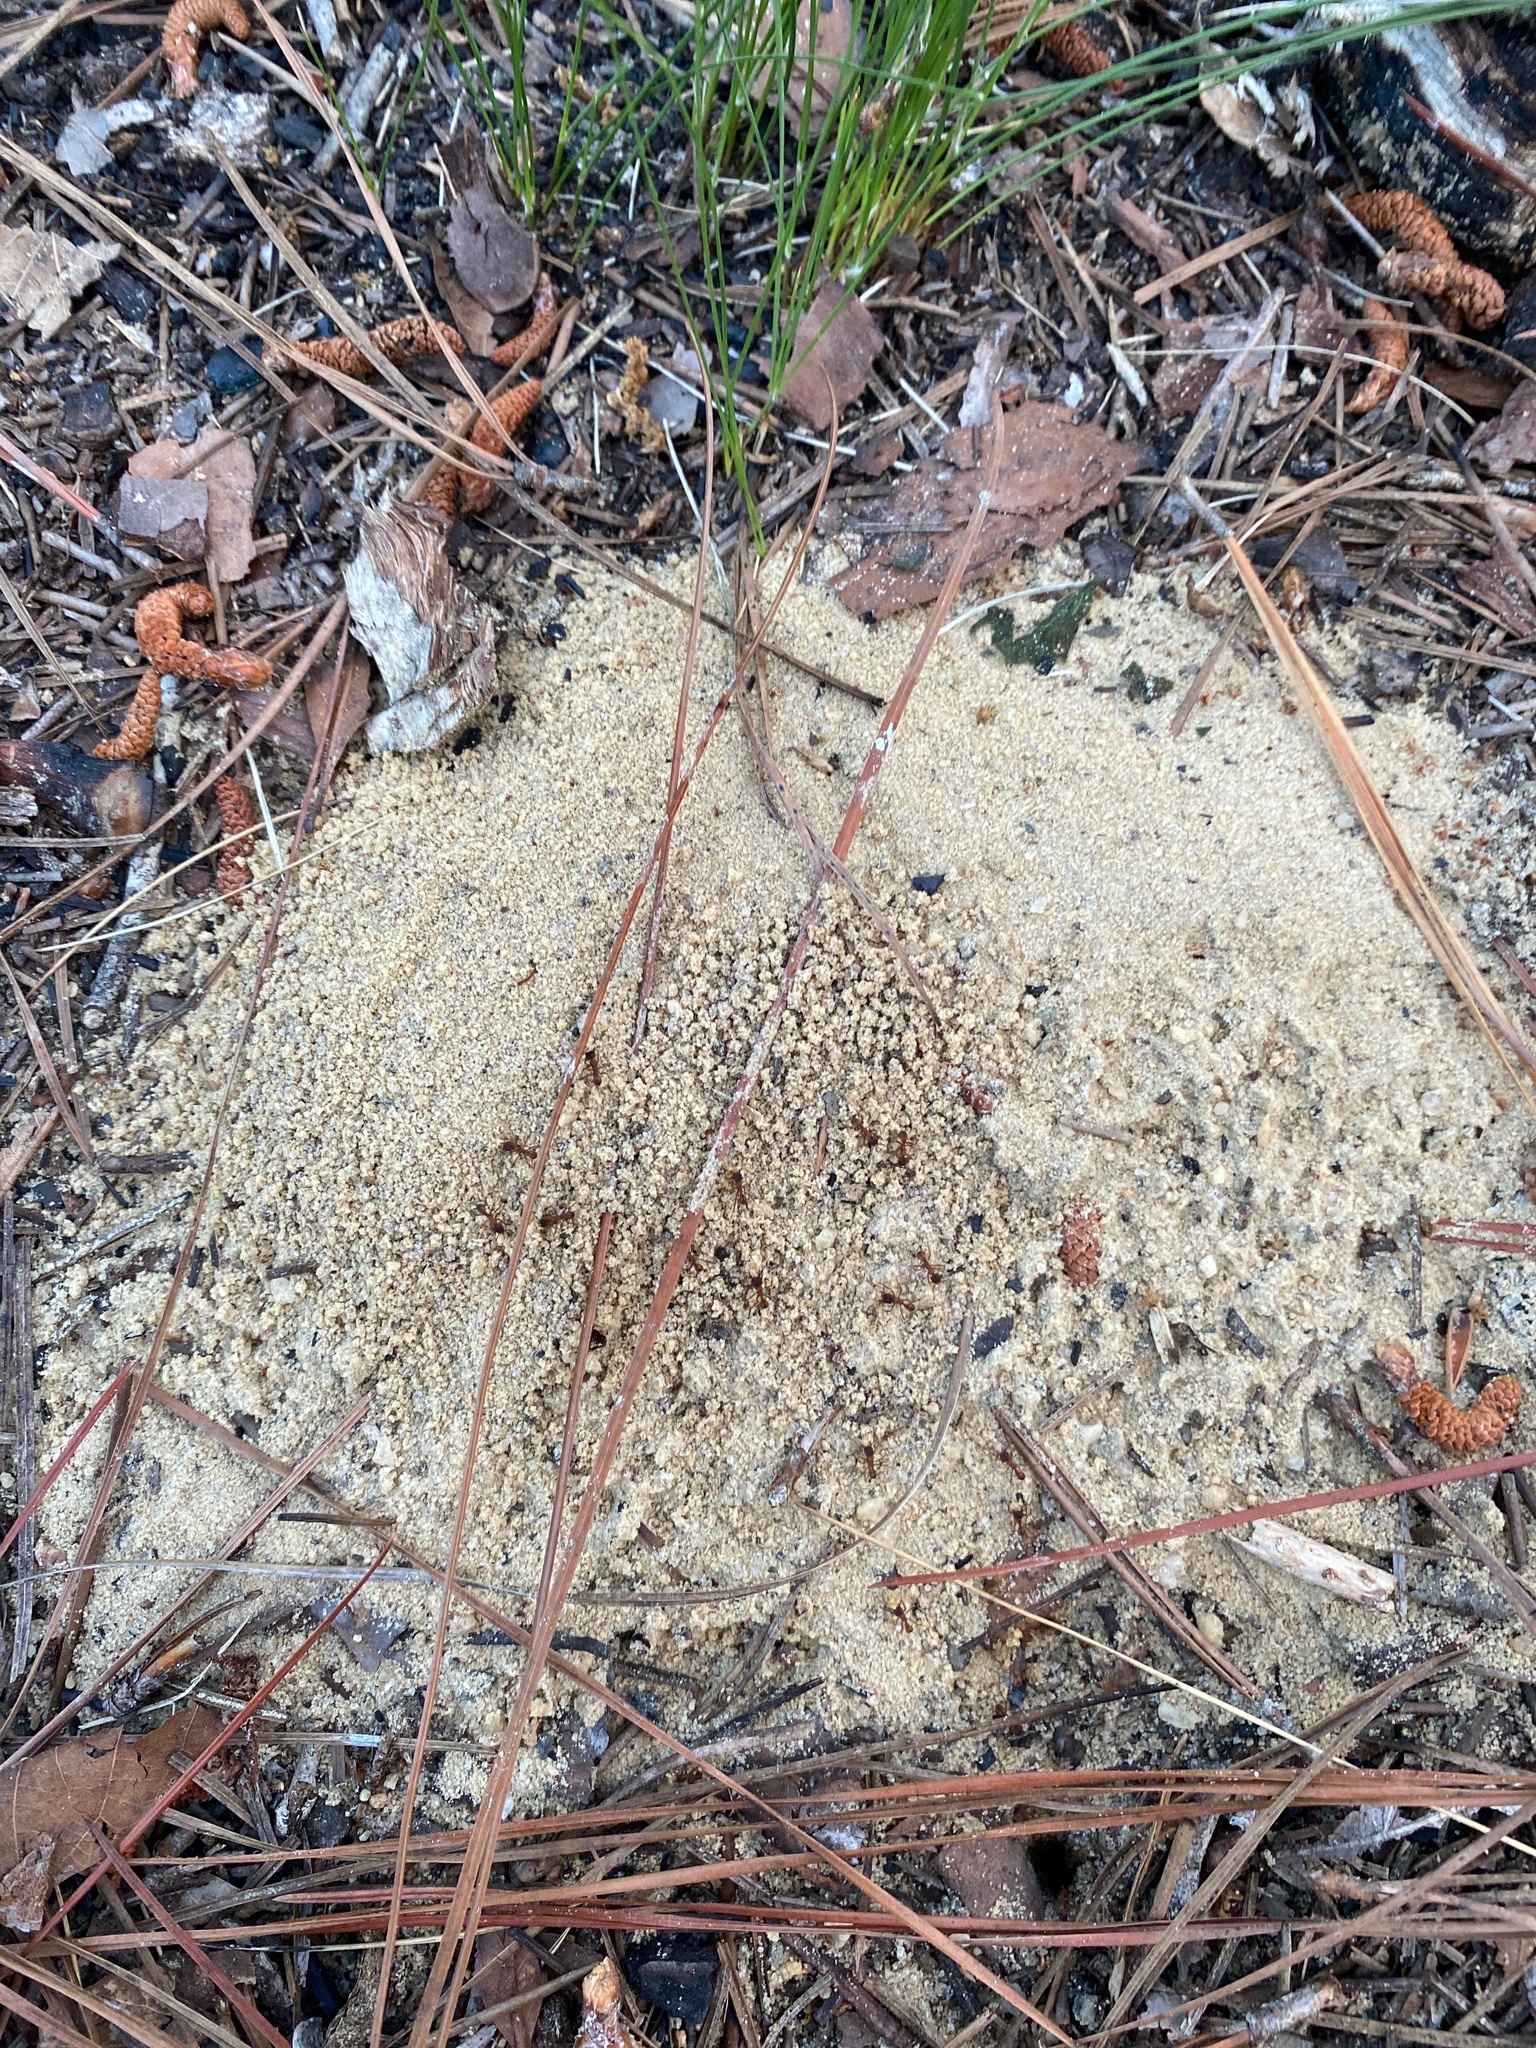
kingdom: Animalia
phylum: Arthropoda
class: Insecta
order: Hymenoptera
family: Formicidae
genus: Trachymyrmex
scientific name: Trachymyrmex septentrionalis
